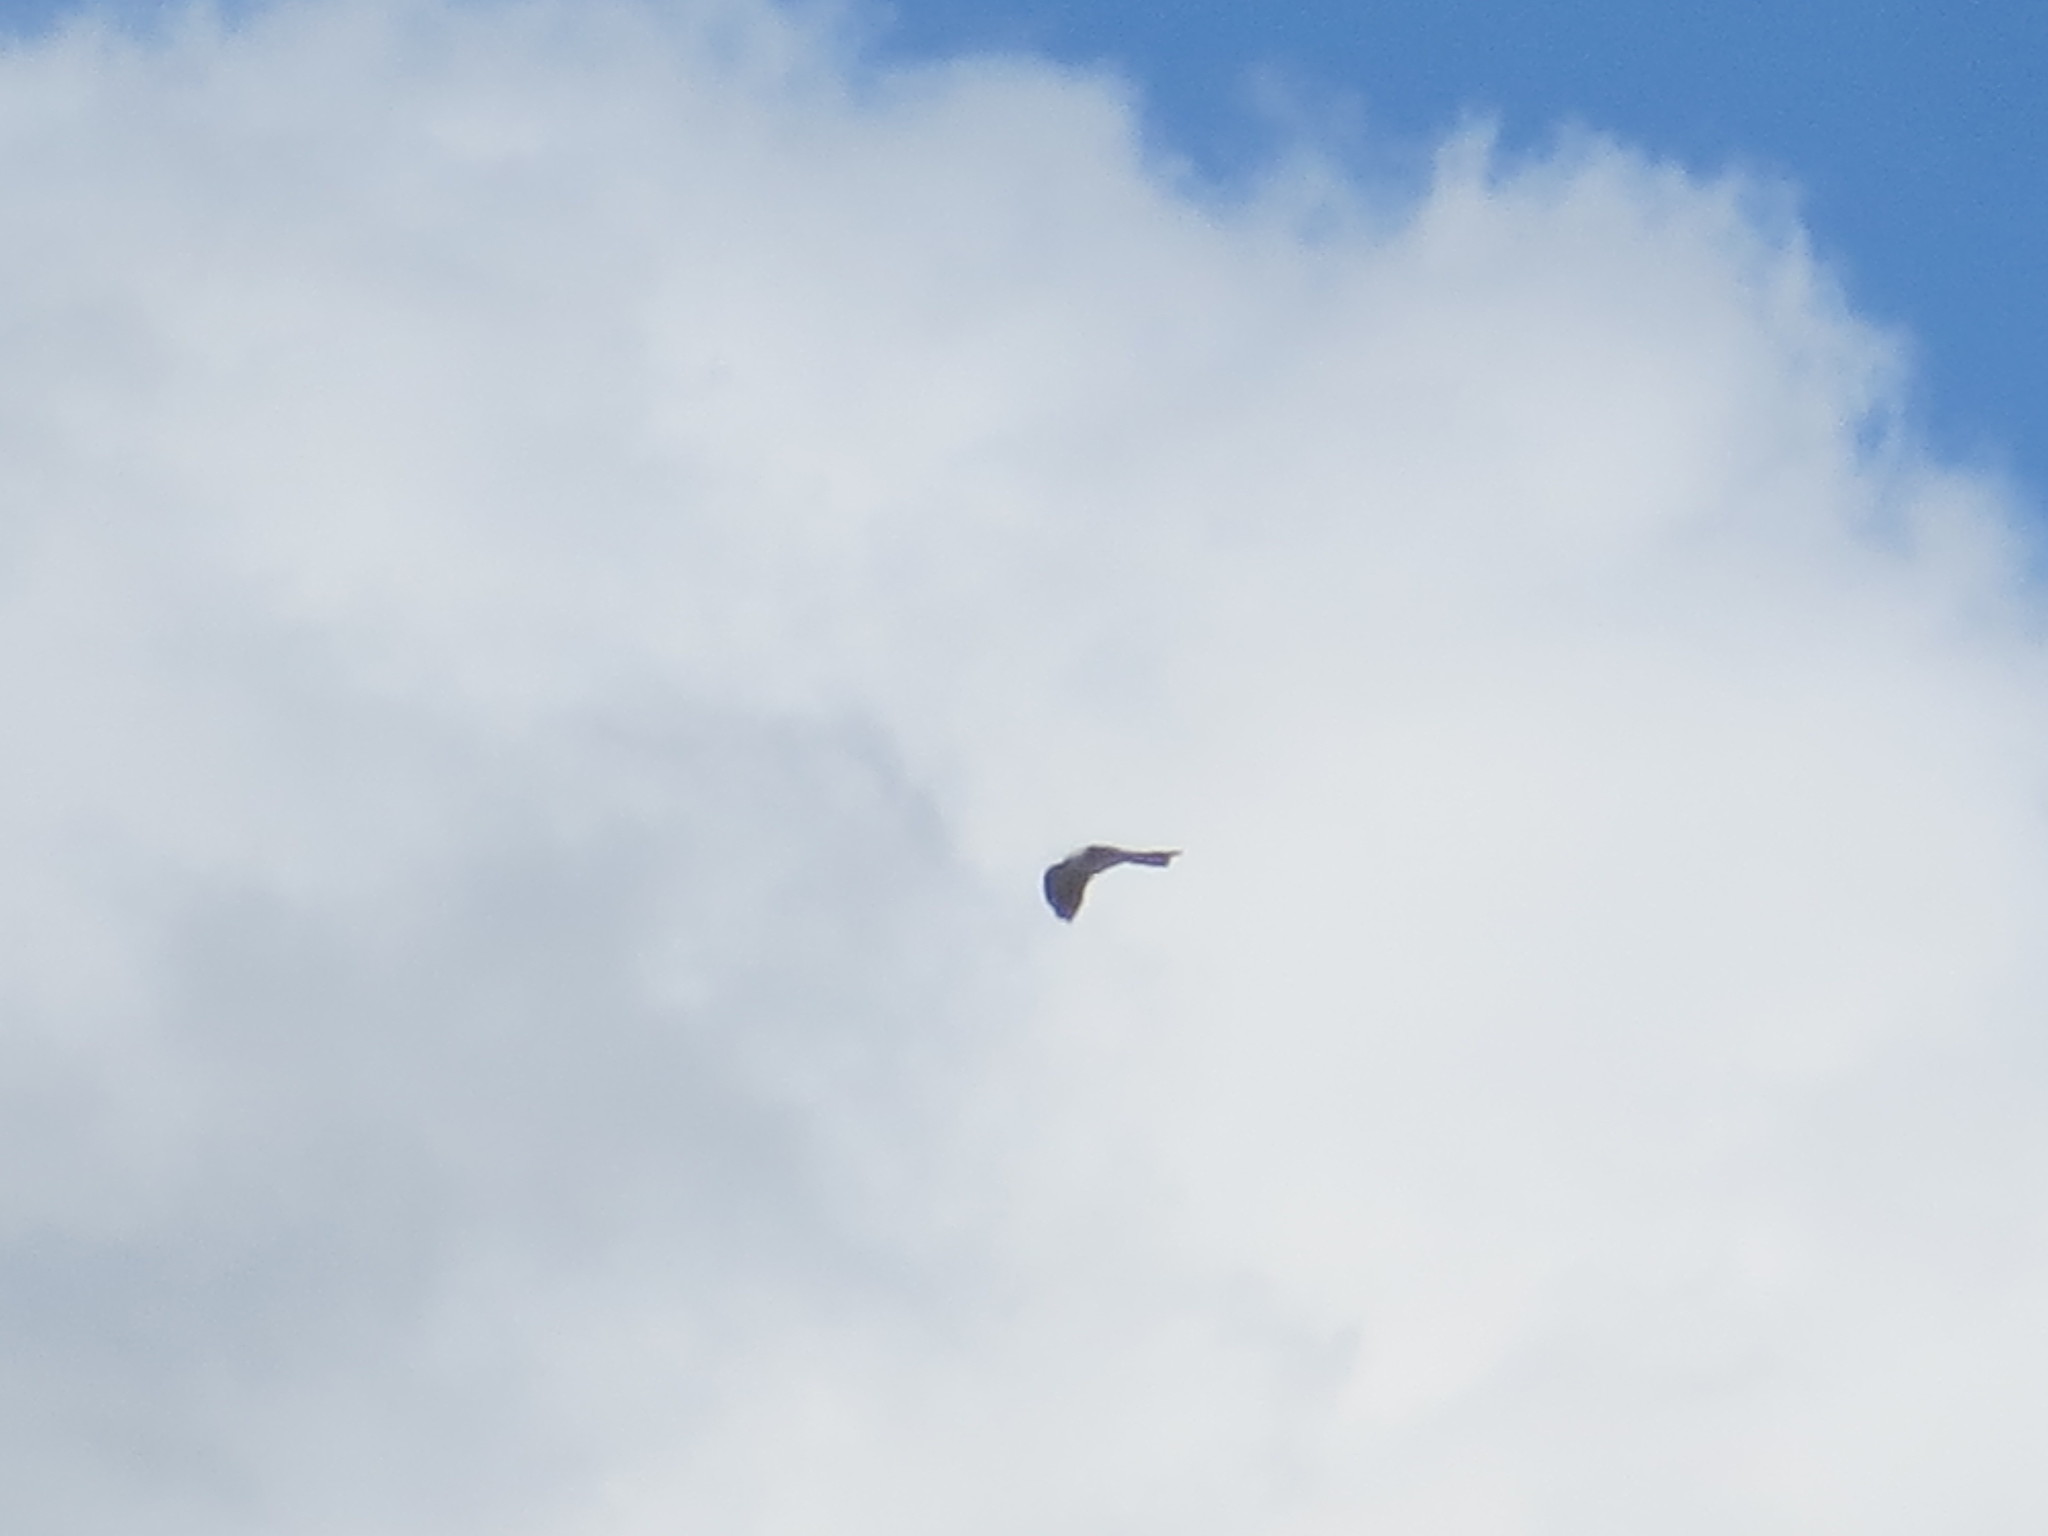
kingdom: Animalia
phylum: Chordata
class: Aves
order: Accipitriformes
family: Accipitridae
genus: Ictinia
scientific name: Ictinia mississippiensis
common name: Mississippi kite
